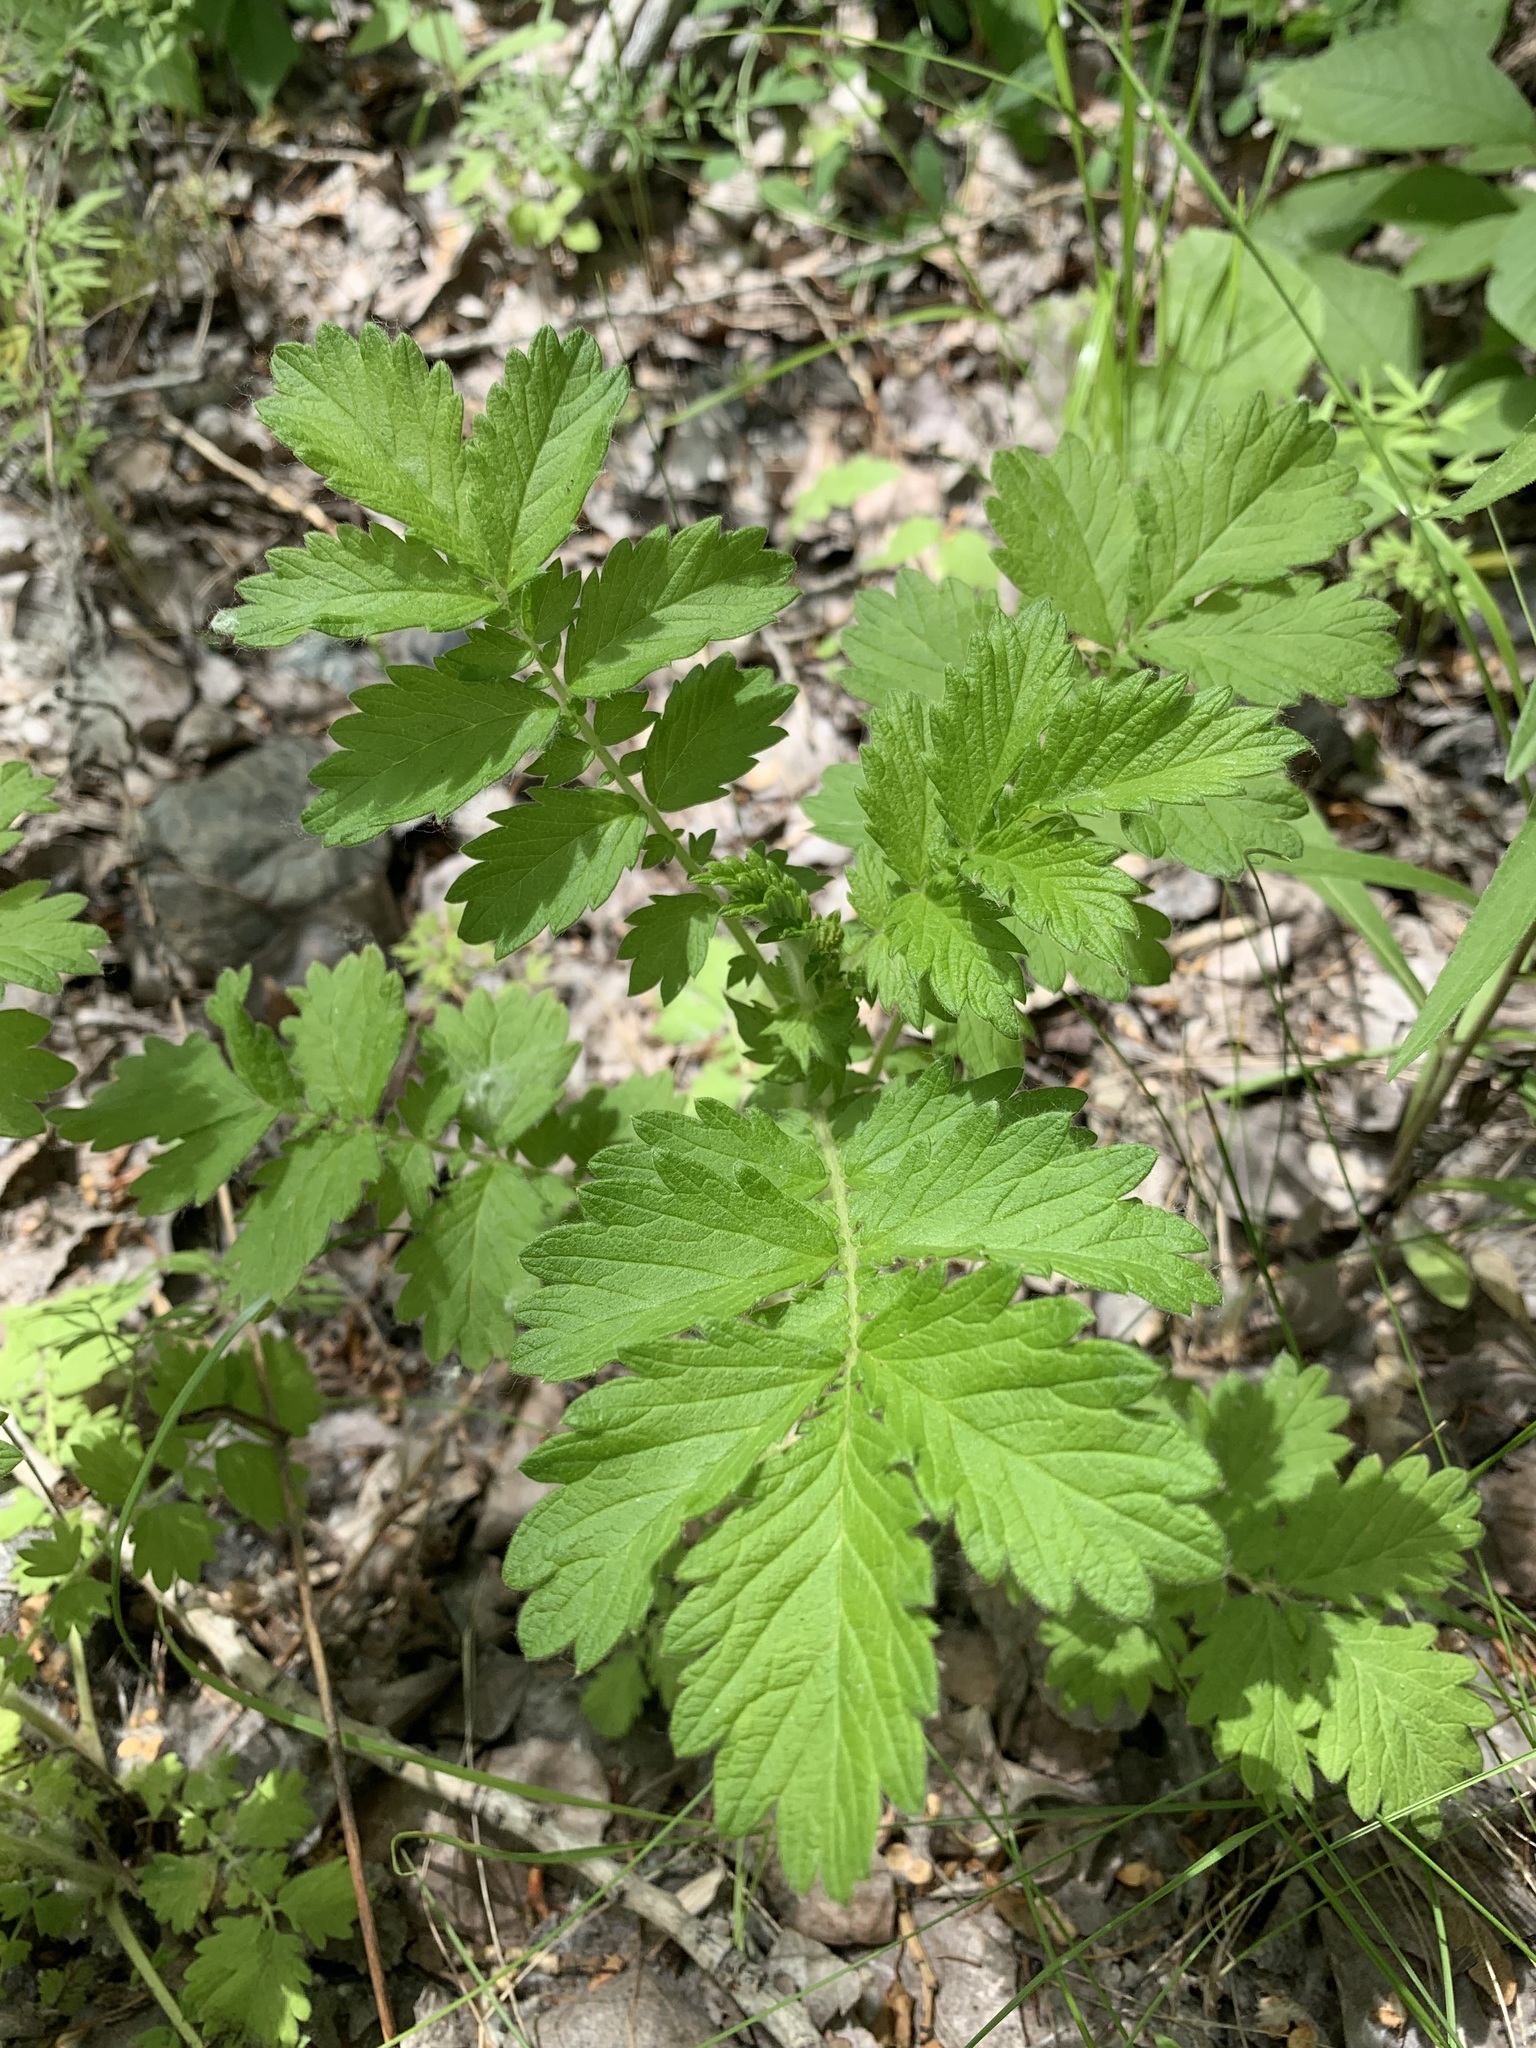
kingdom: Plantae
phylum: Tracheophyta
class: Magnoliopsida
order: Rosales
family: Rosaceae
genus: Agrimonia
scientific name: Agrimonia eupatoria
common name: Agrimony
